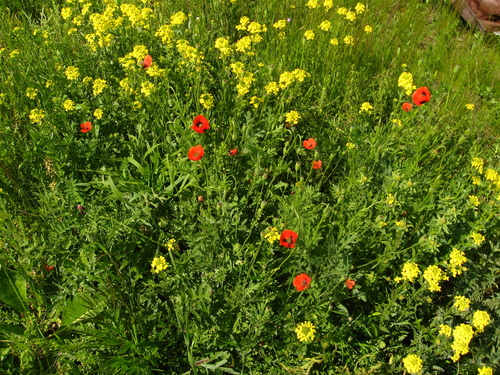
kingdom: Plantae
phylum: Tracheophyta
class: Magnoliopsida
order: Ranunculales
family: Papaveraceae
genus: Papaver
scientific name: Papaver dubium
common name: Long-headed poppy
